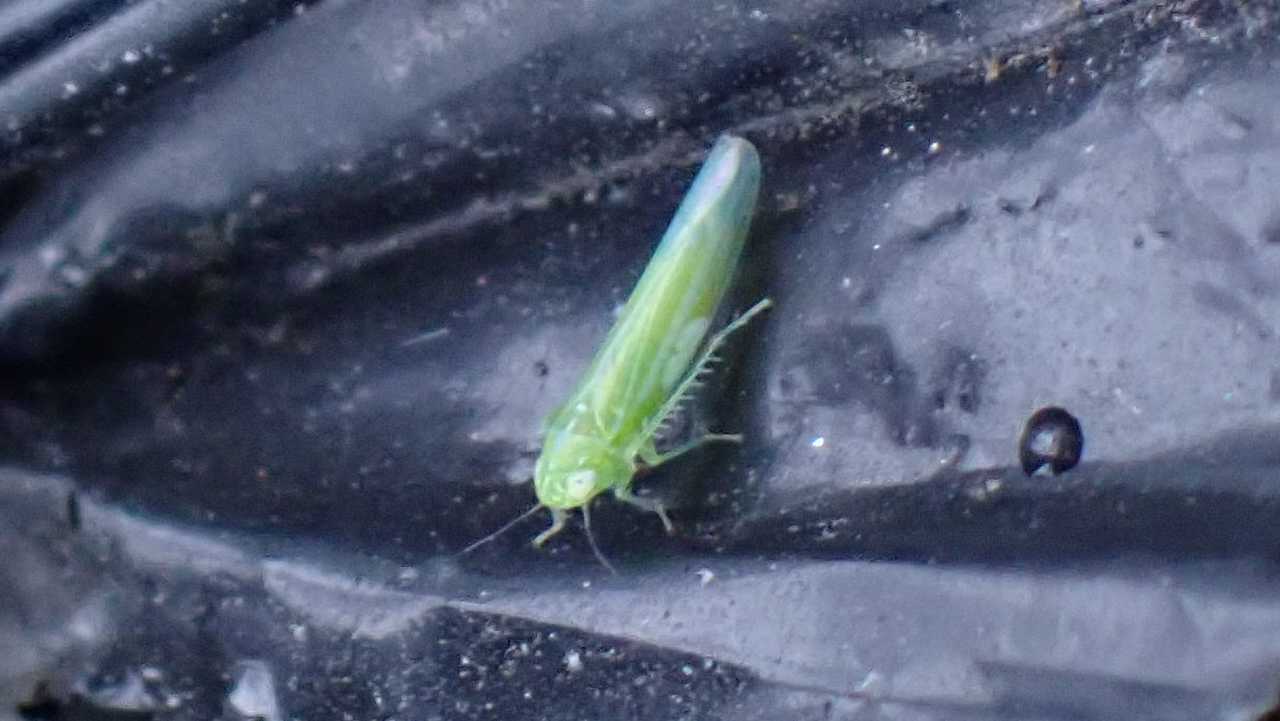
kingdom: Animalia
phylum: Arthropoda
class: Insecta
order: Hemiptera
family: Cicadellidae
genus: Hebata
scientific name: Hebata vitis
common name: The smaller green leafhopper
